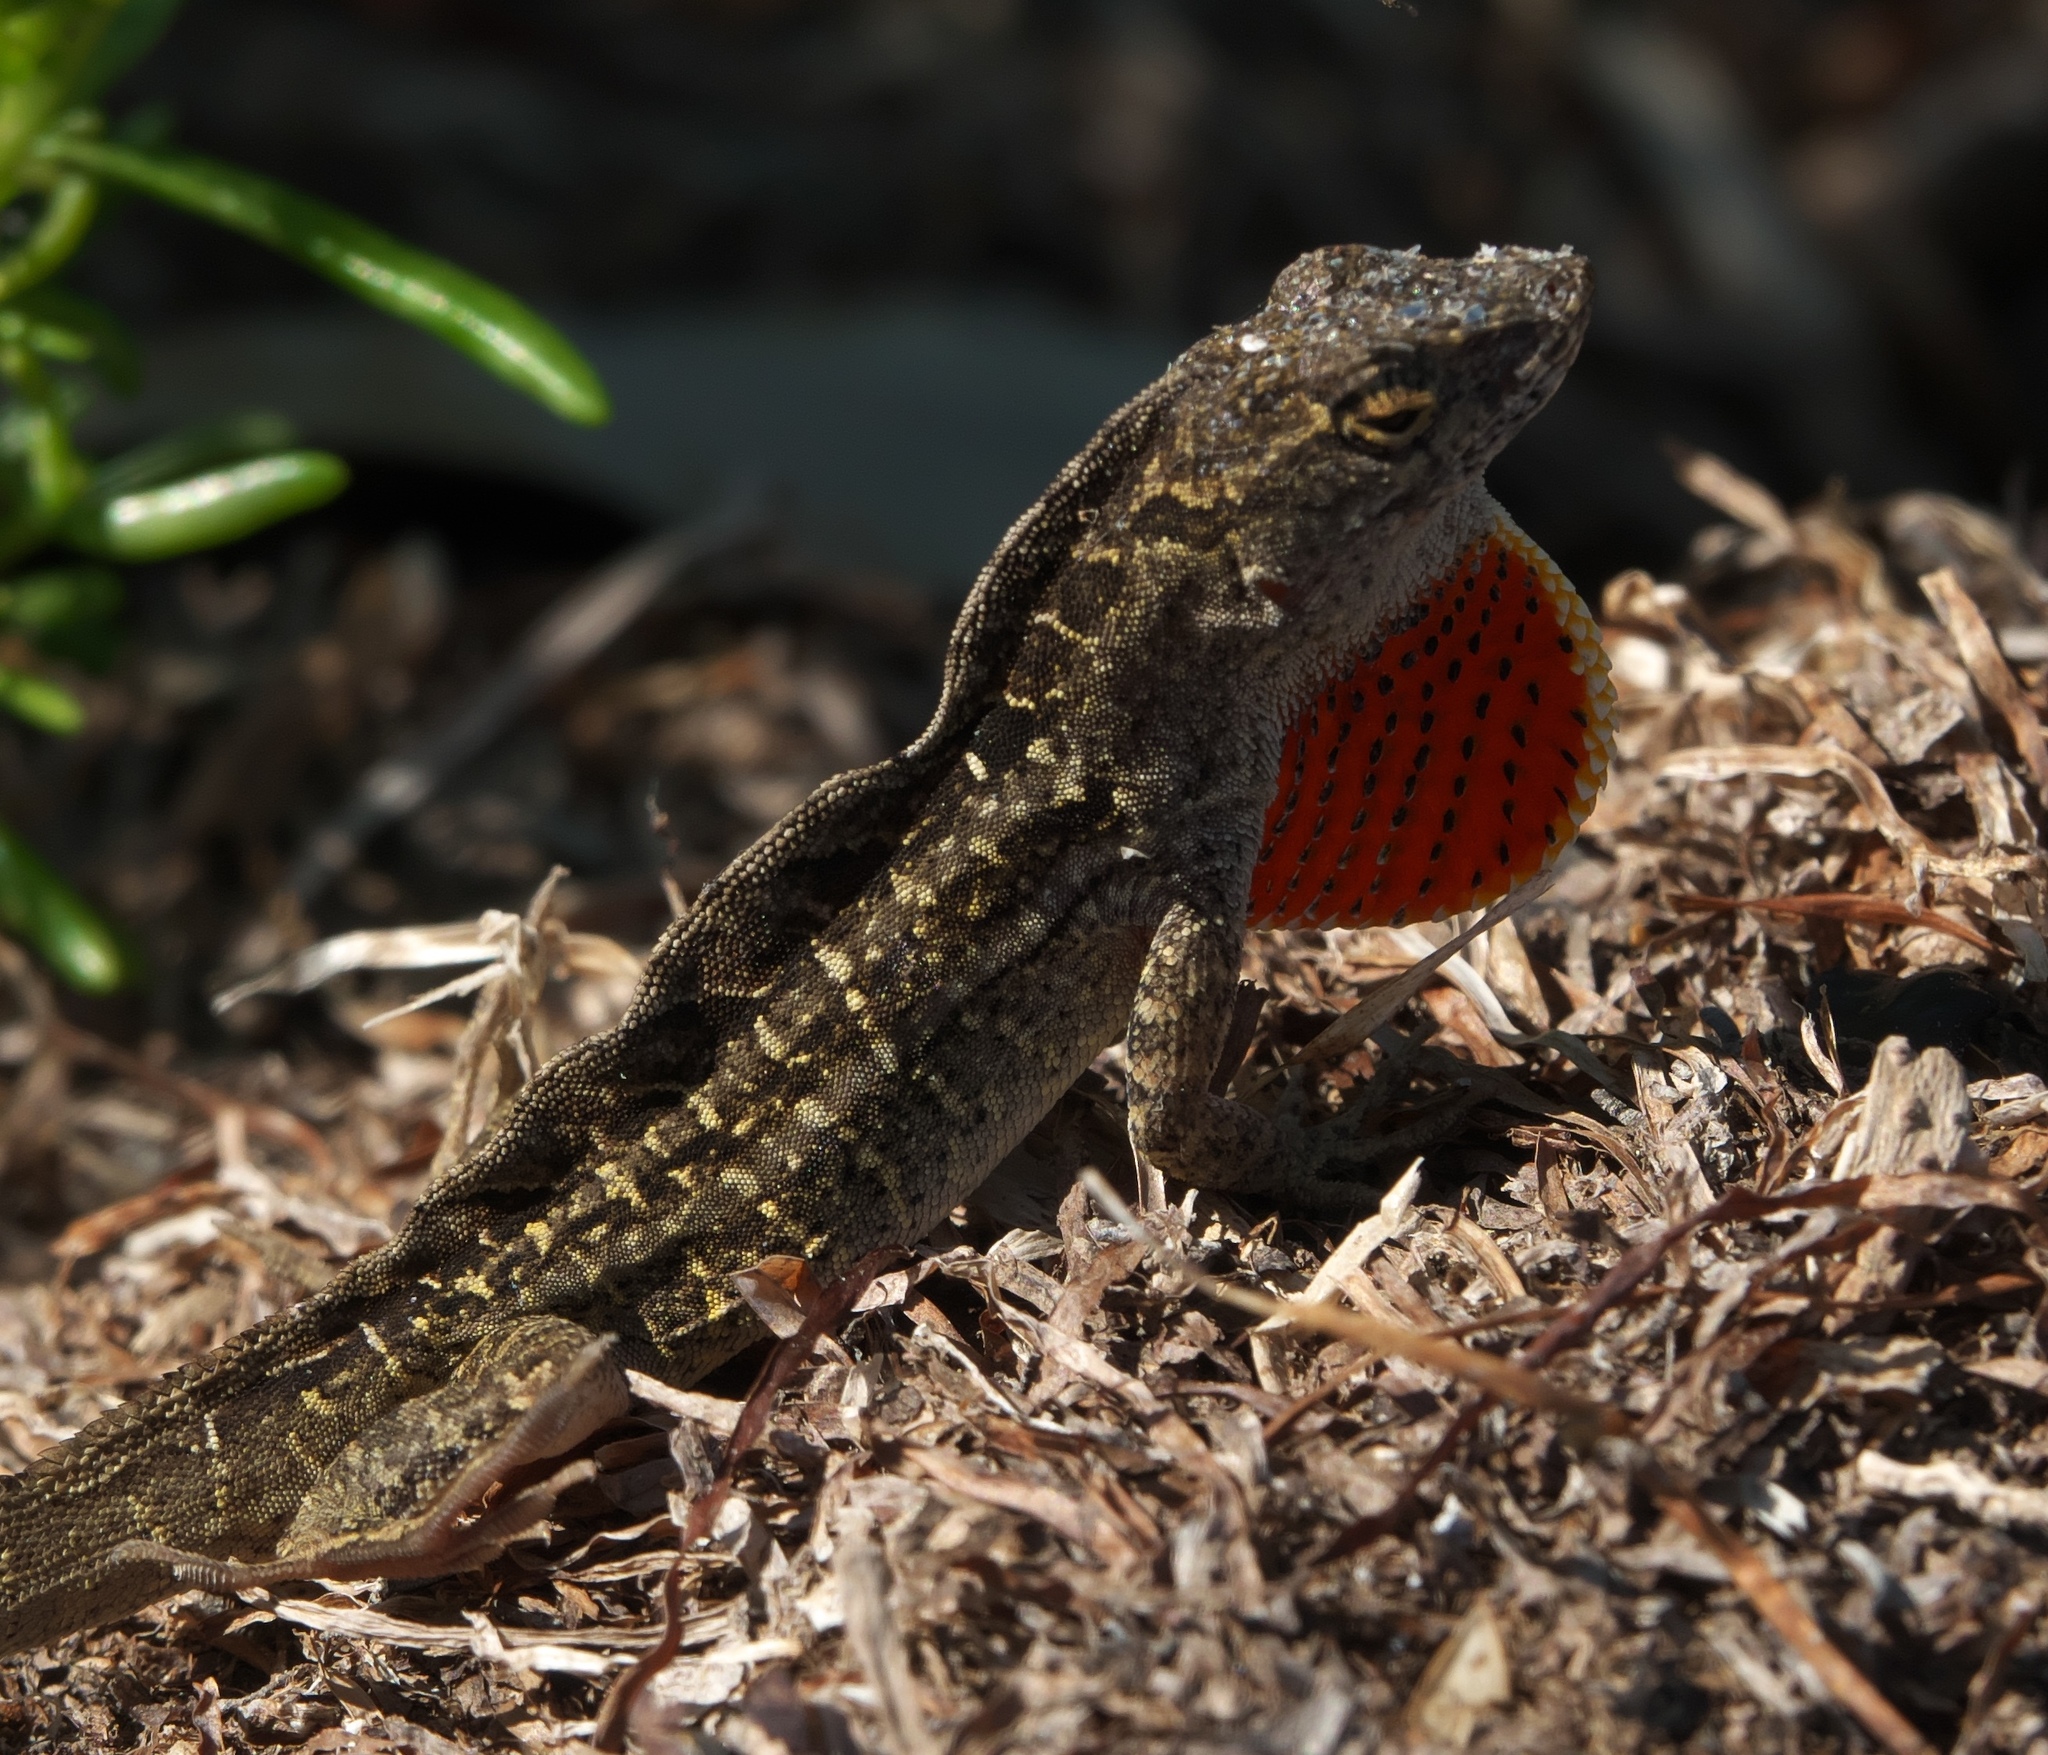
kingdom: Animalia
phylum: Chordata
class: Squamata
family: Dactyloidae
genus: Anolis
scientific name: Anolis sagrei
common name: Brown anole
